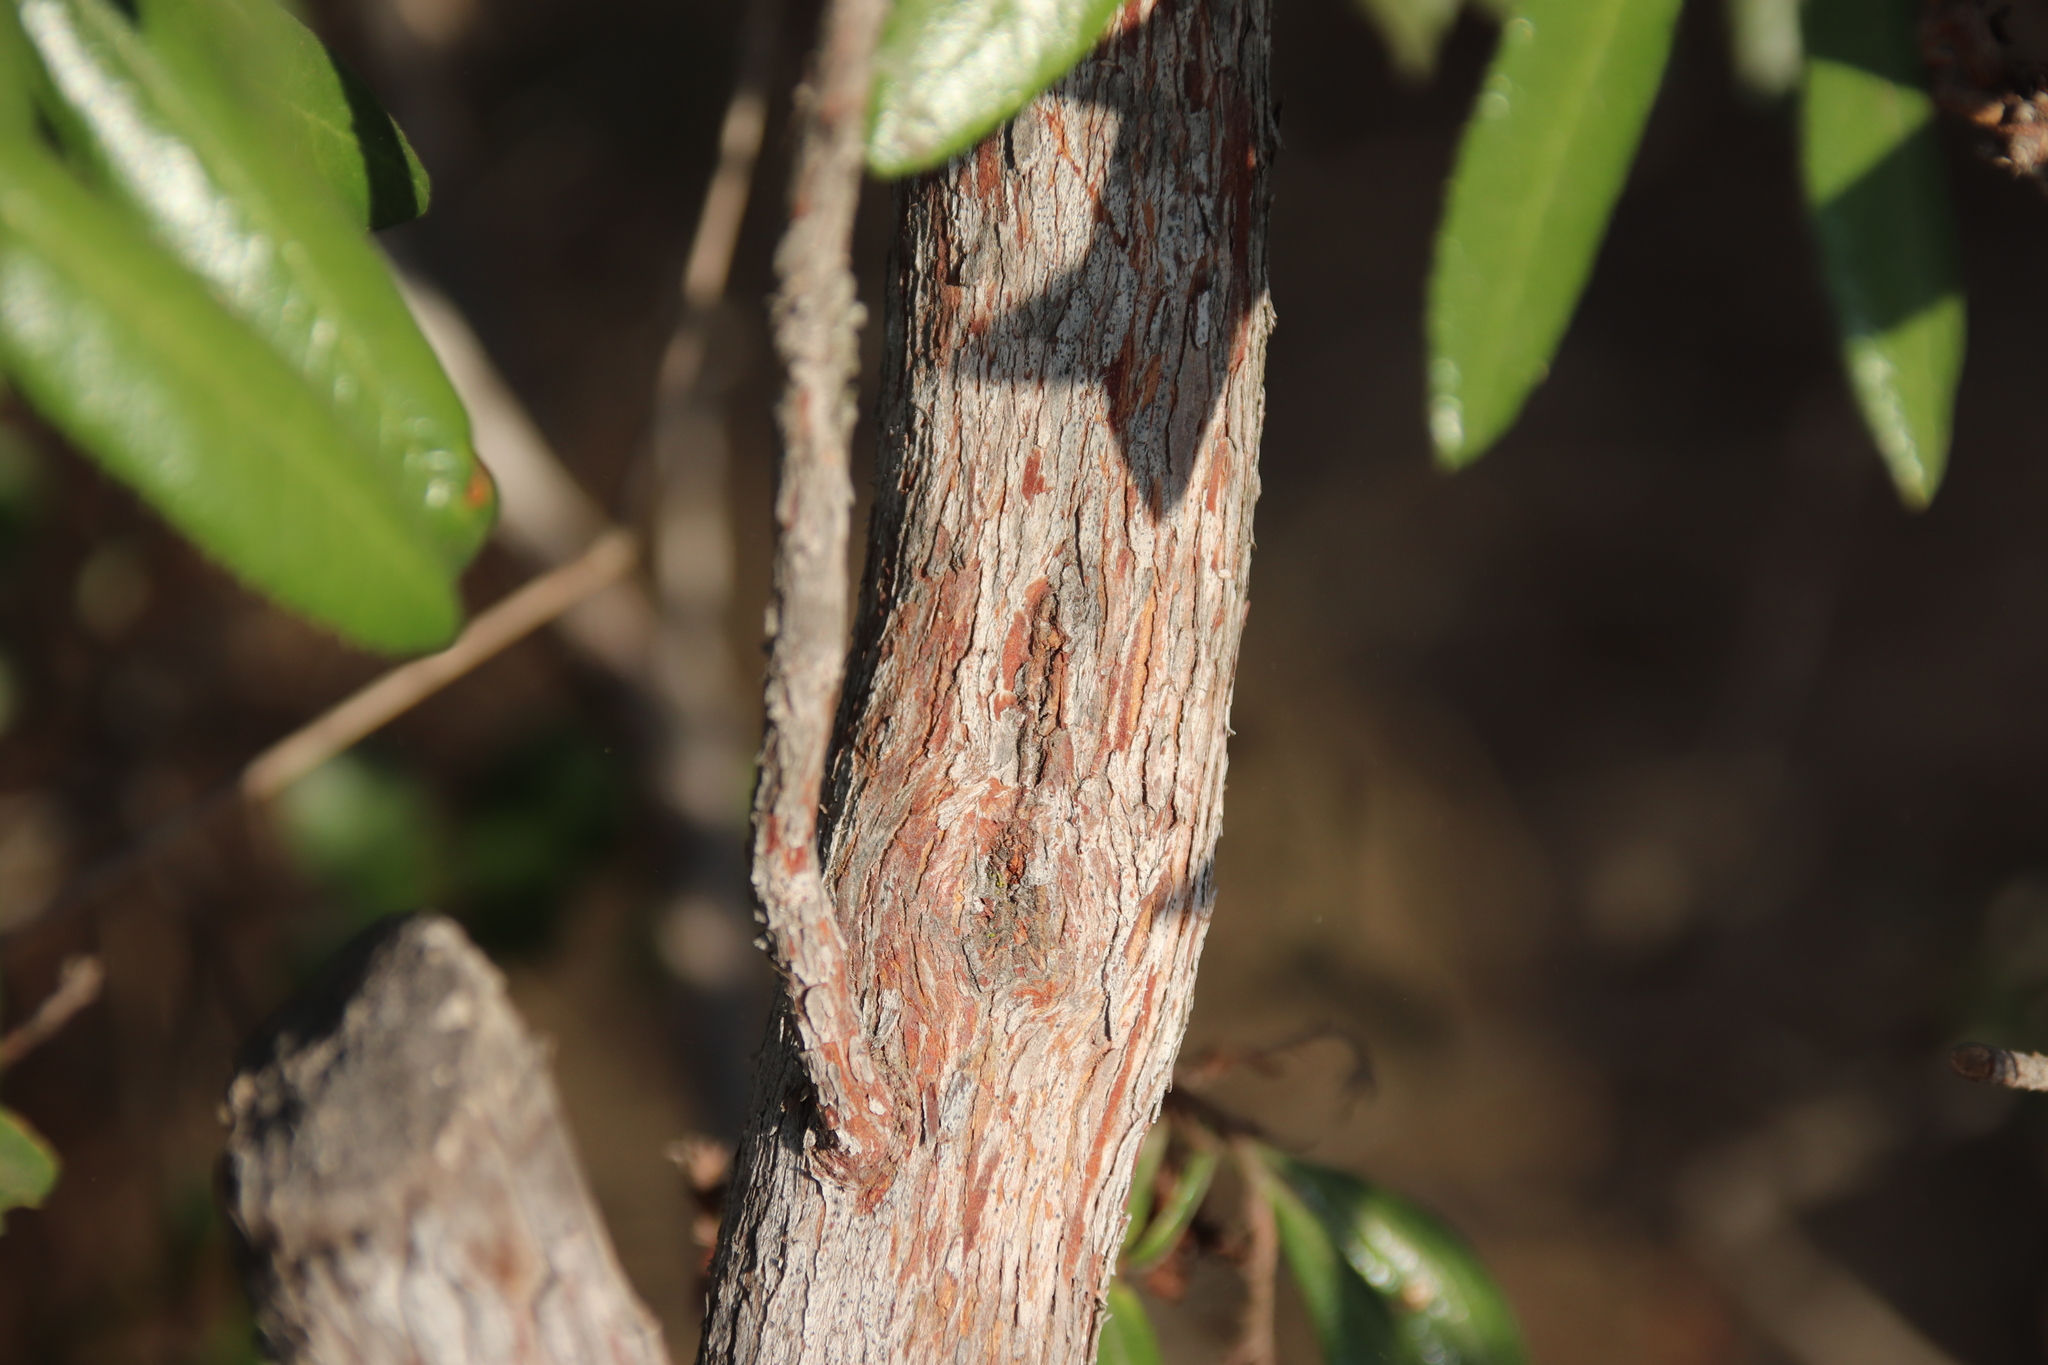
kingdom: Plantae
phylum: Tracheophyta
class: Magnoliopsida
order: Ericales
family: Ericaceae
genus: Comarostaphylis
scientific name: Comarostaphylis diversifolia
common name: Summer-holly
